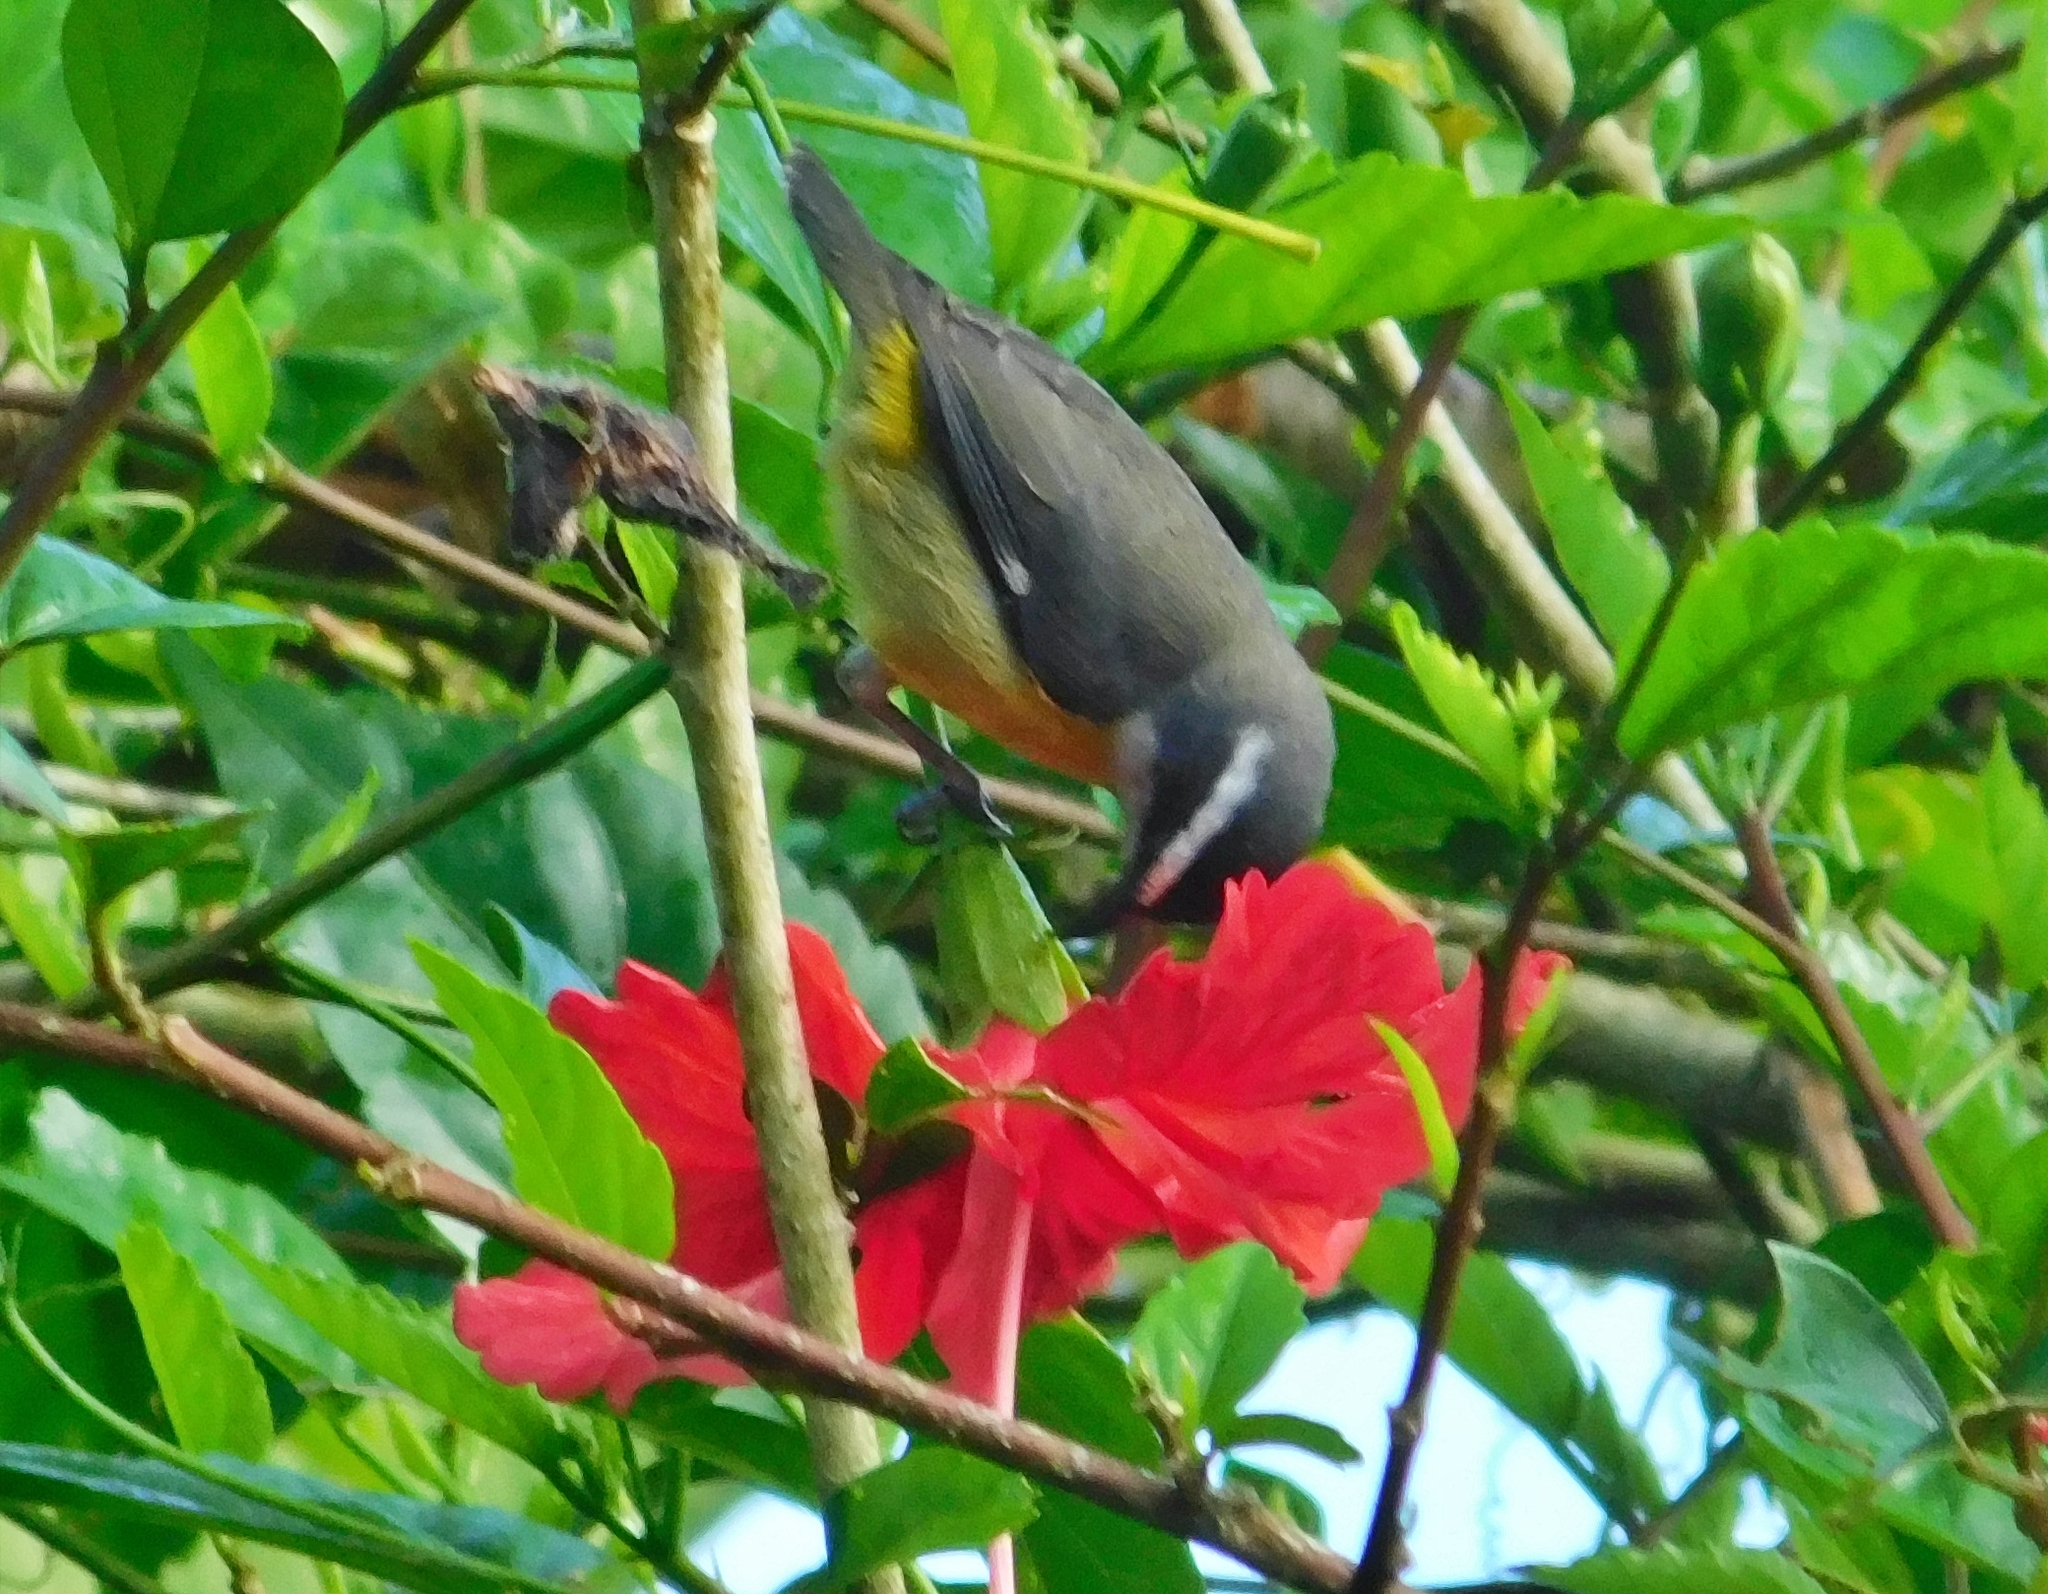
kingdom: Animalia
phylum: Chordata
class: Aves
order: Passeriformes
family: Thraupidae
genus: Coereba
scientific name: Coereba flaveola
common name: Bananaquit
